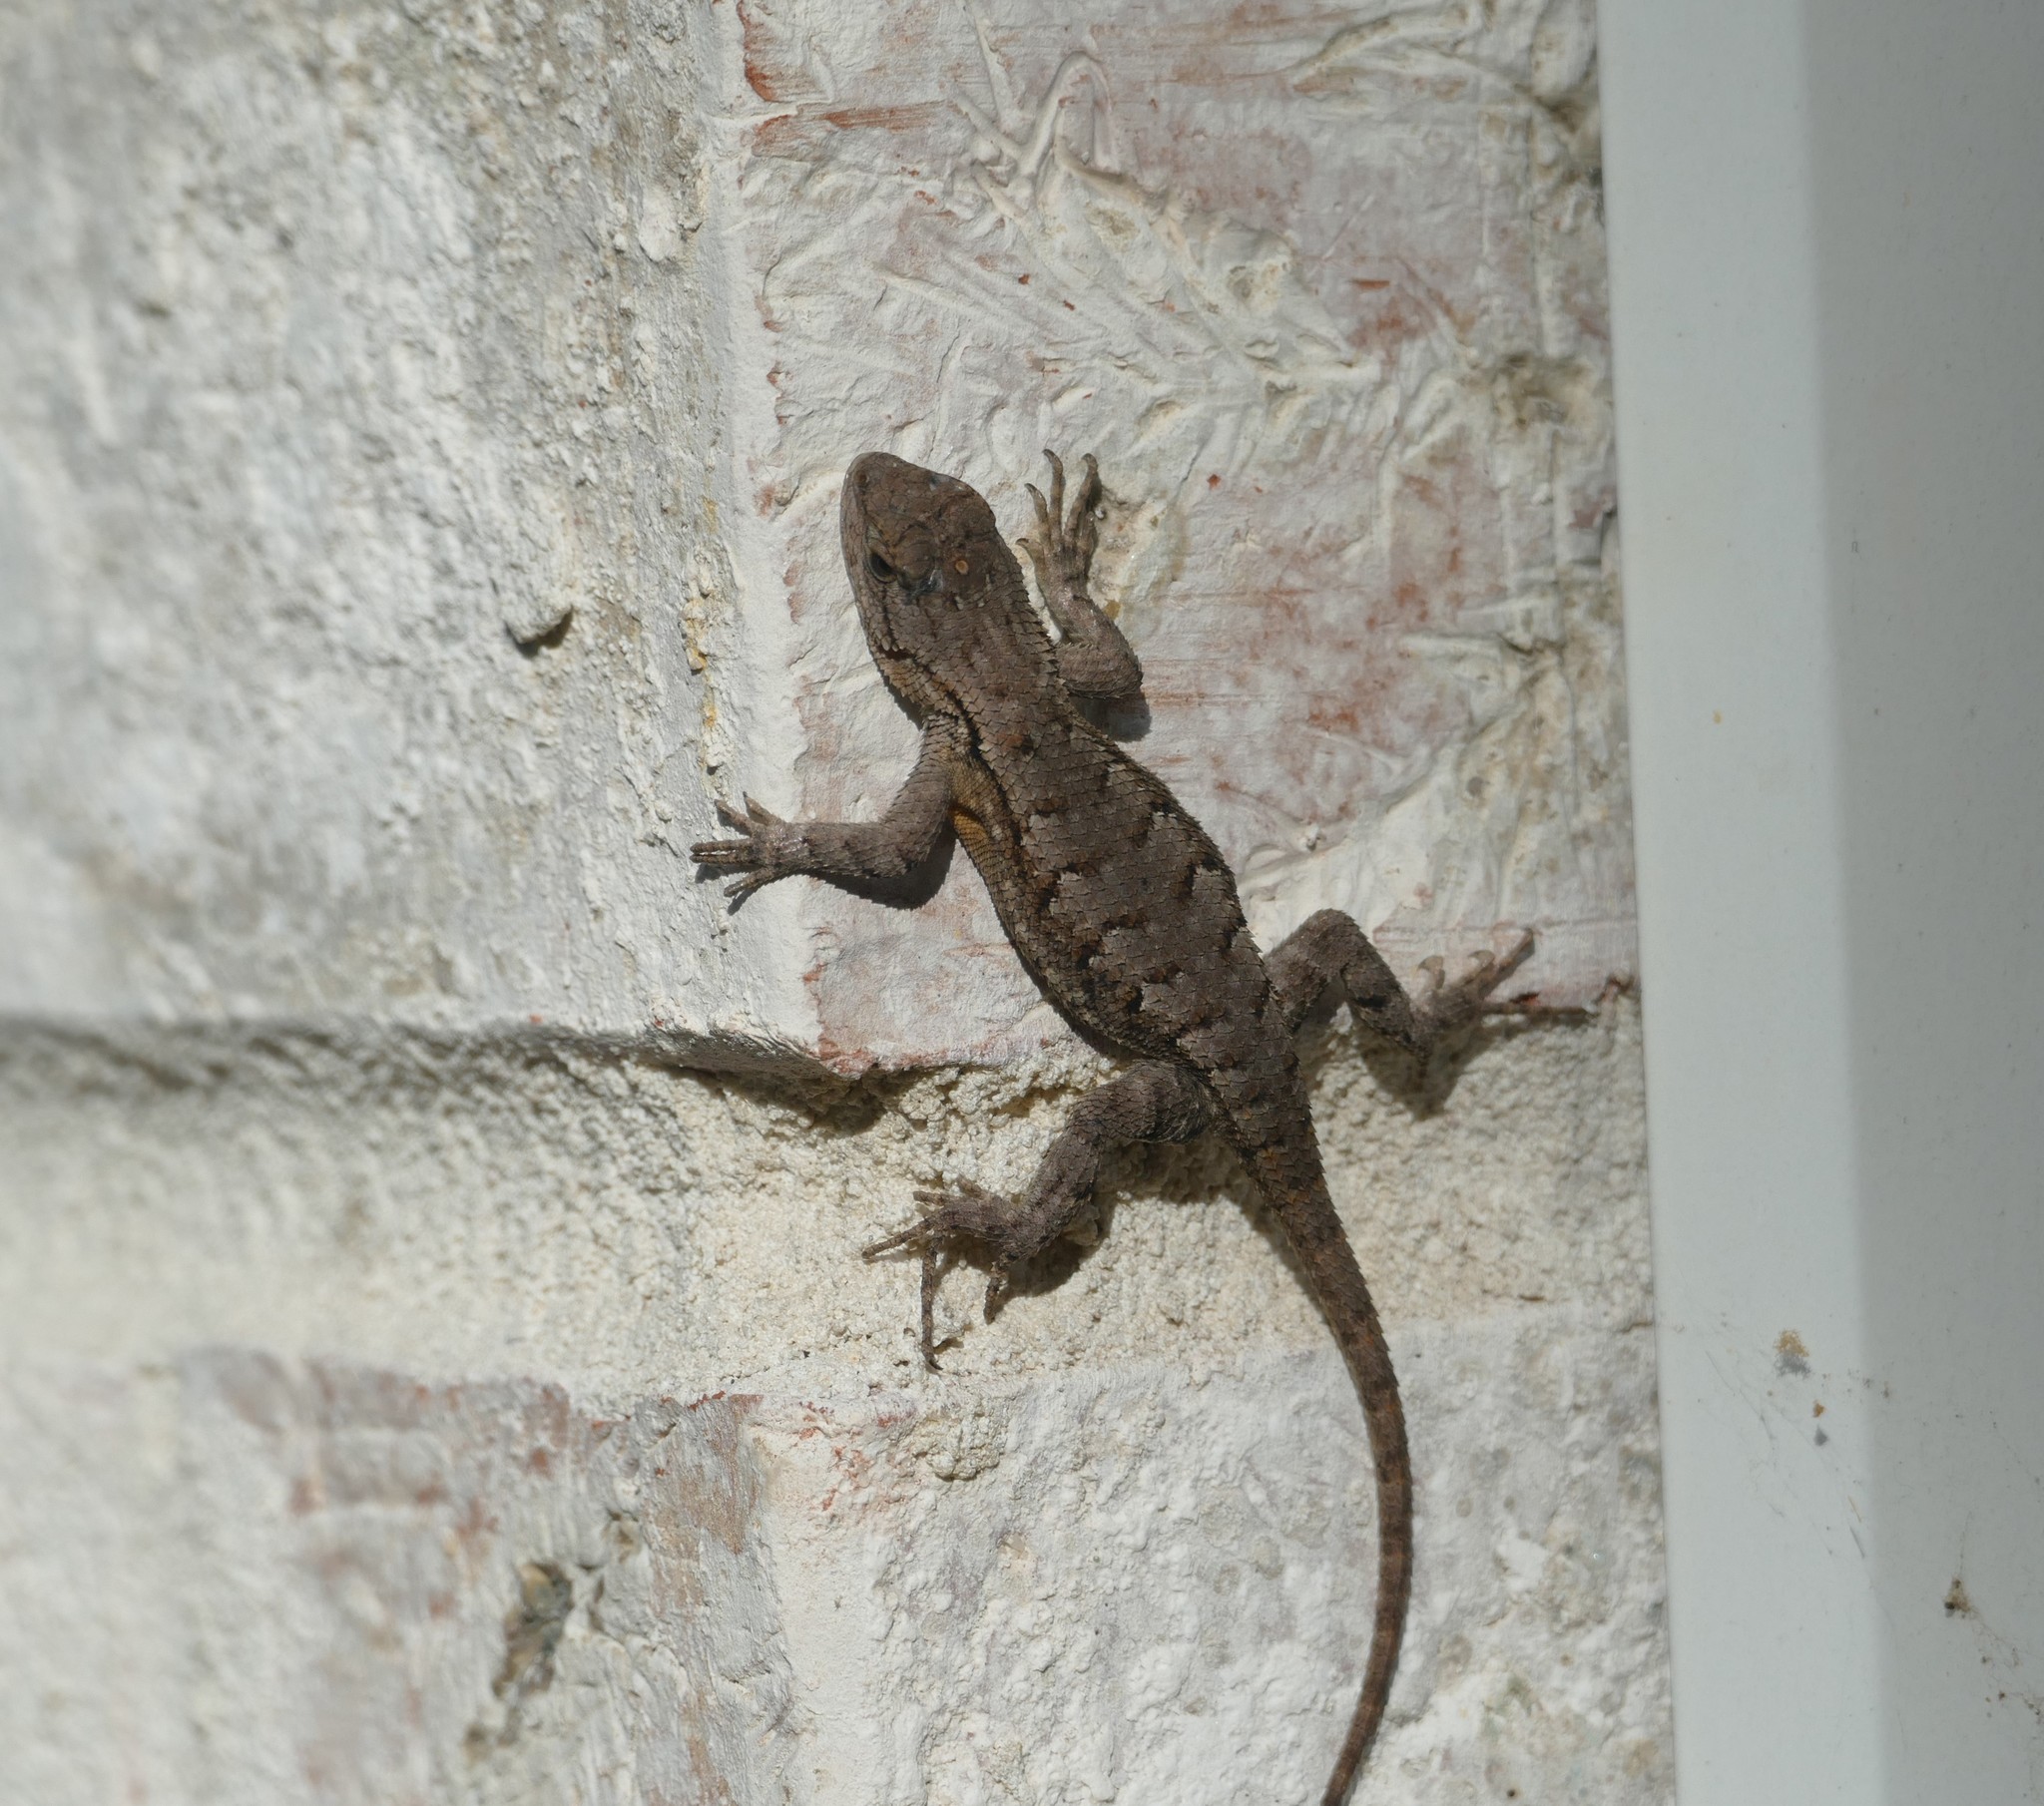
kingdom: Animalia
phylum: Chordata
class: Squamata
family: Phrynosomatidae
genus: Sceloporus
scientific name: Sceloporus undulatus
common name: Eastern fence lizard
